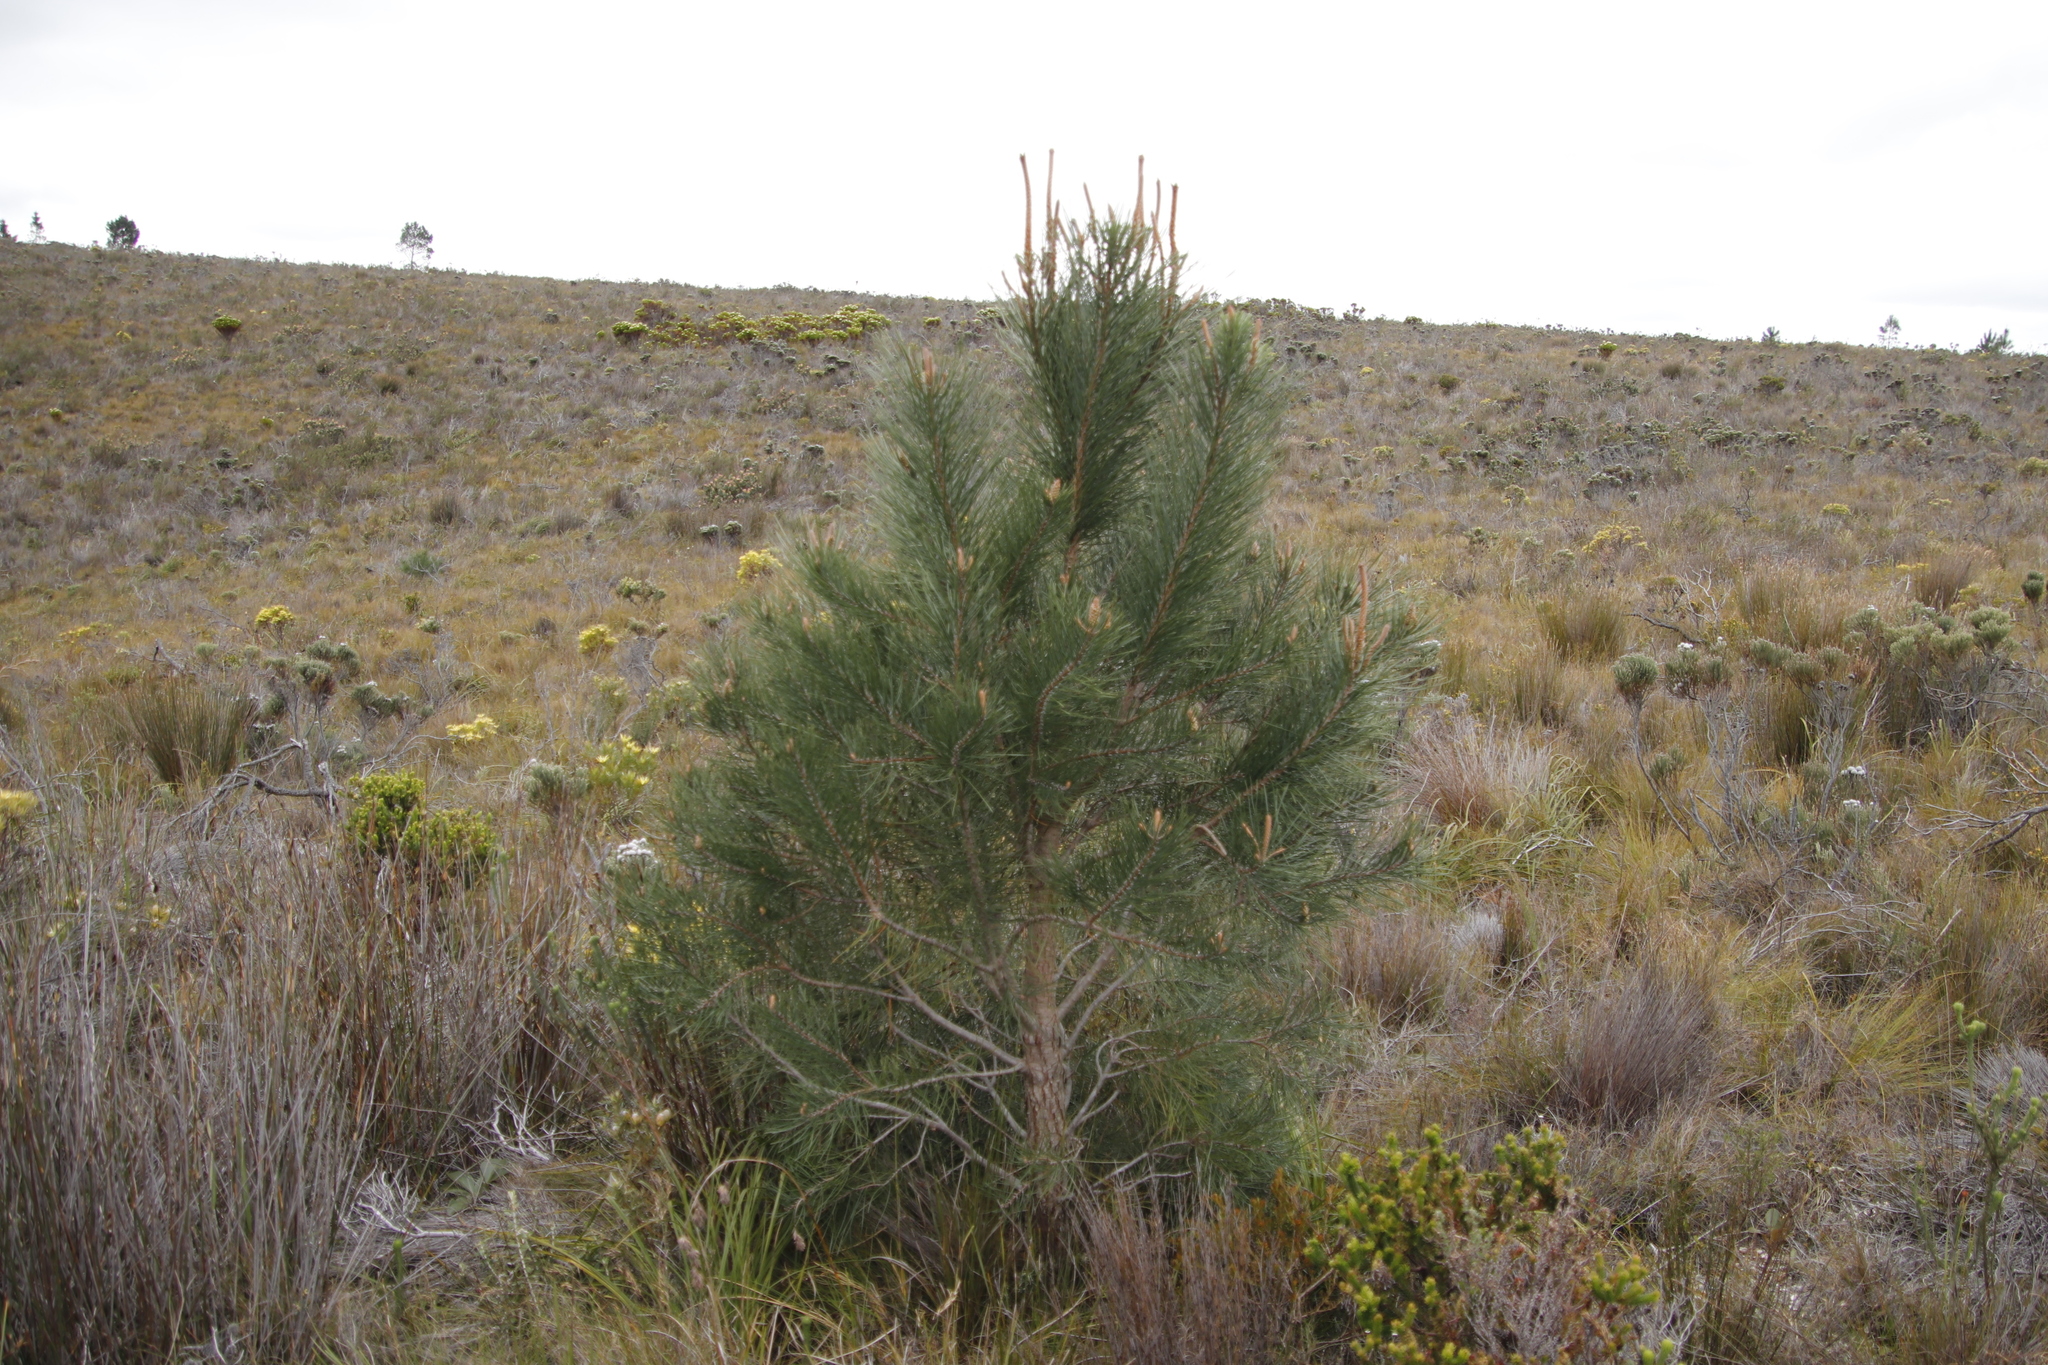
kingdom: Plantae
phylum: Tracheophyta
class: Pinopsida
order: Pinales
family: Pinaceae
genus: Pinus
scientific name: Pinus pinaster
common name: Maritime pine
